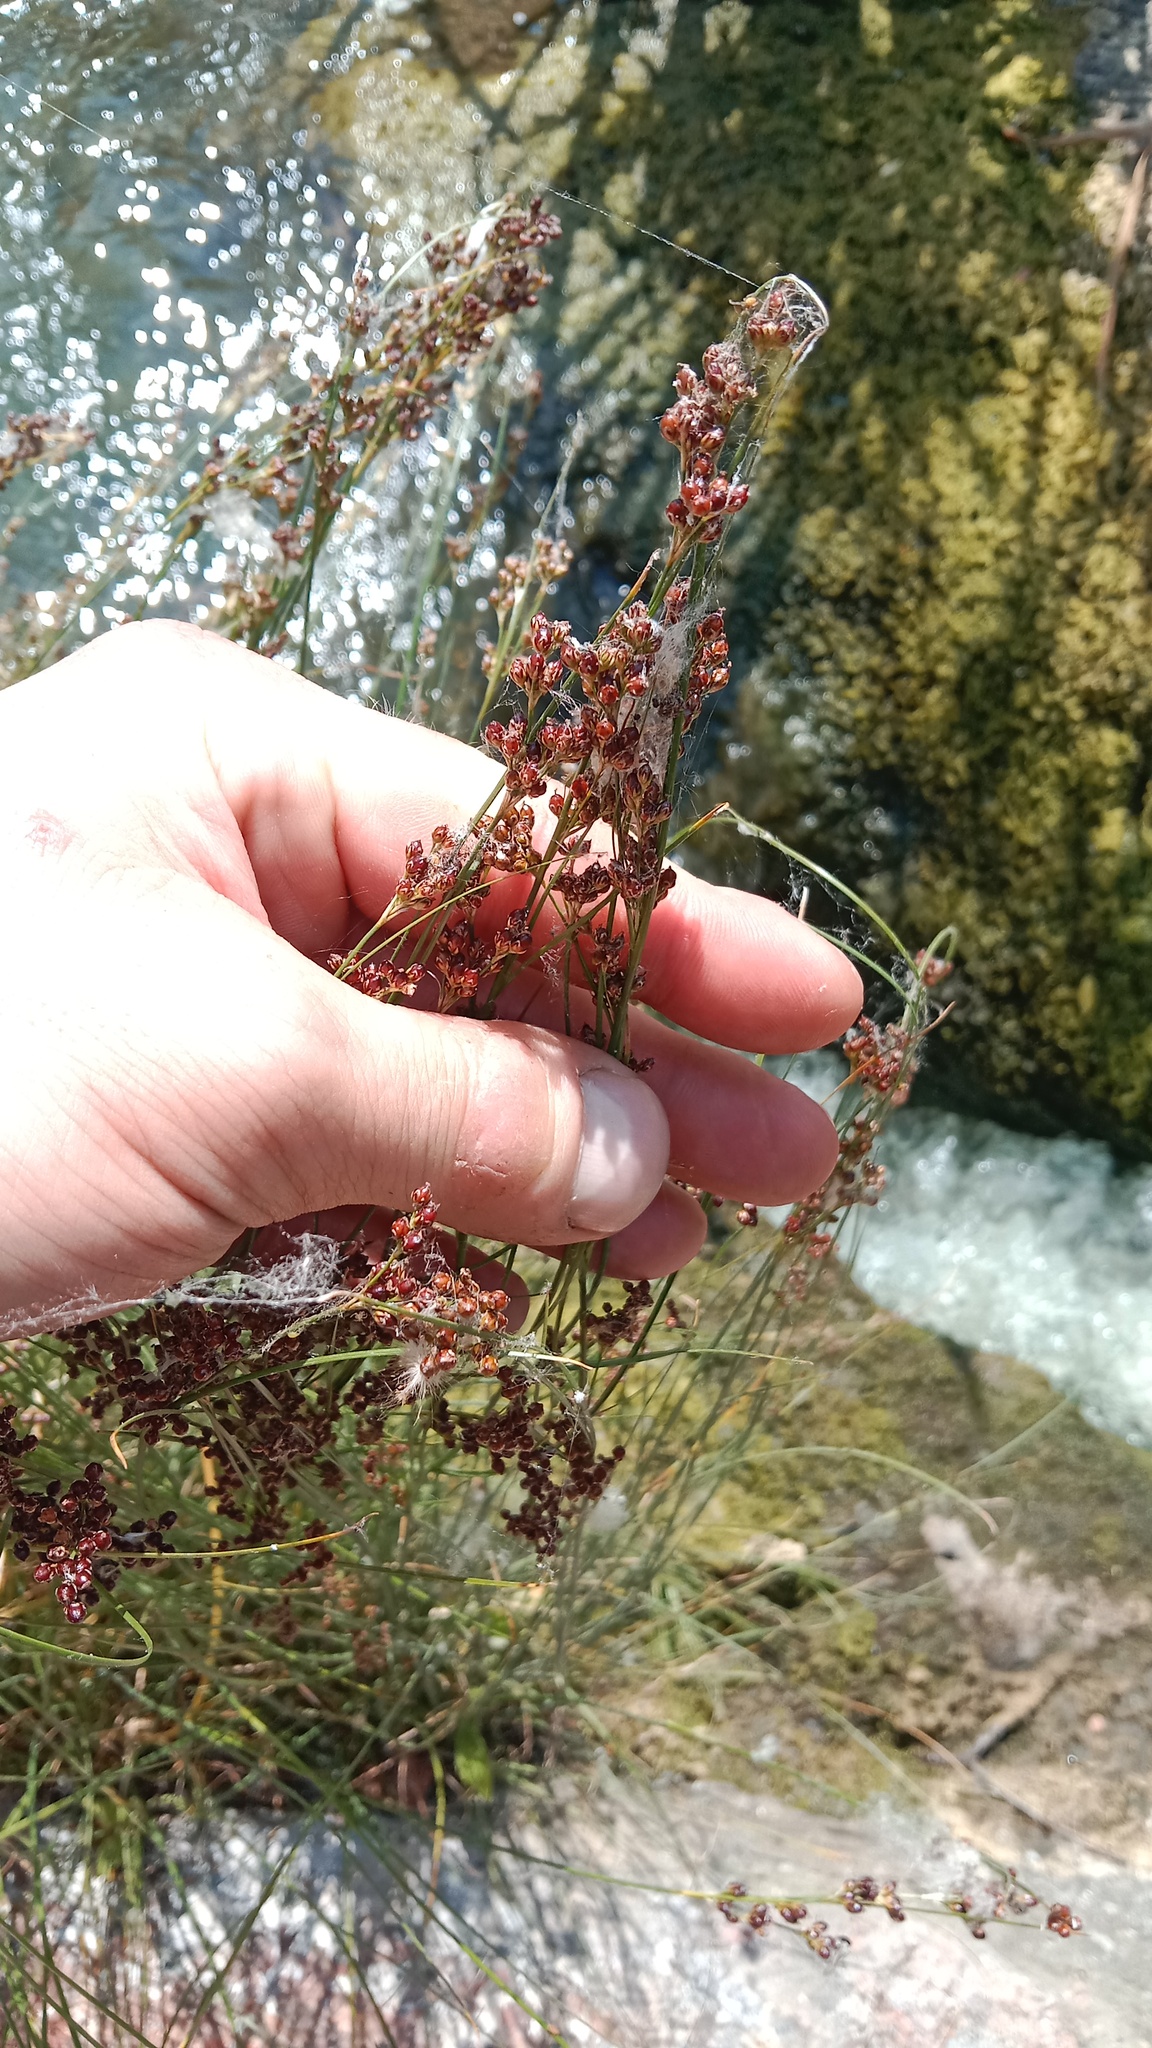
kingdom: Plantae
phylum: Tracheophyta
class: Liliopsida
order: Poales
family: Juncaceae
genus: Juncus
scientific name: Juncus compressus
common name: Round-fruited rush
